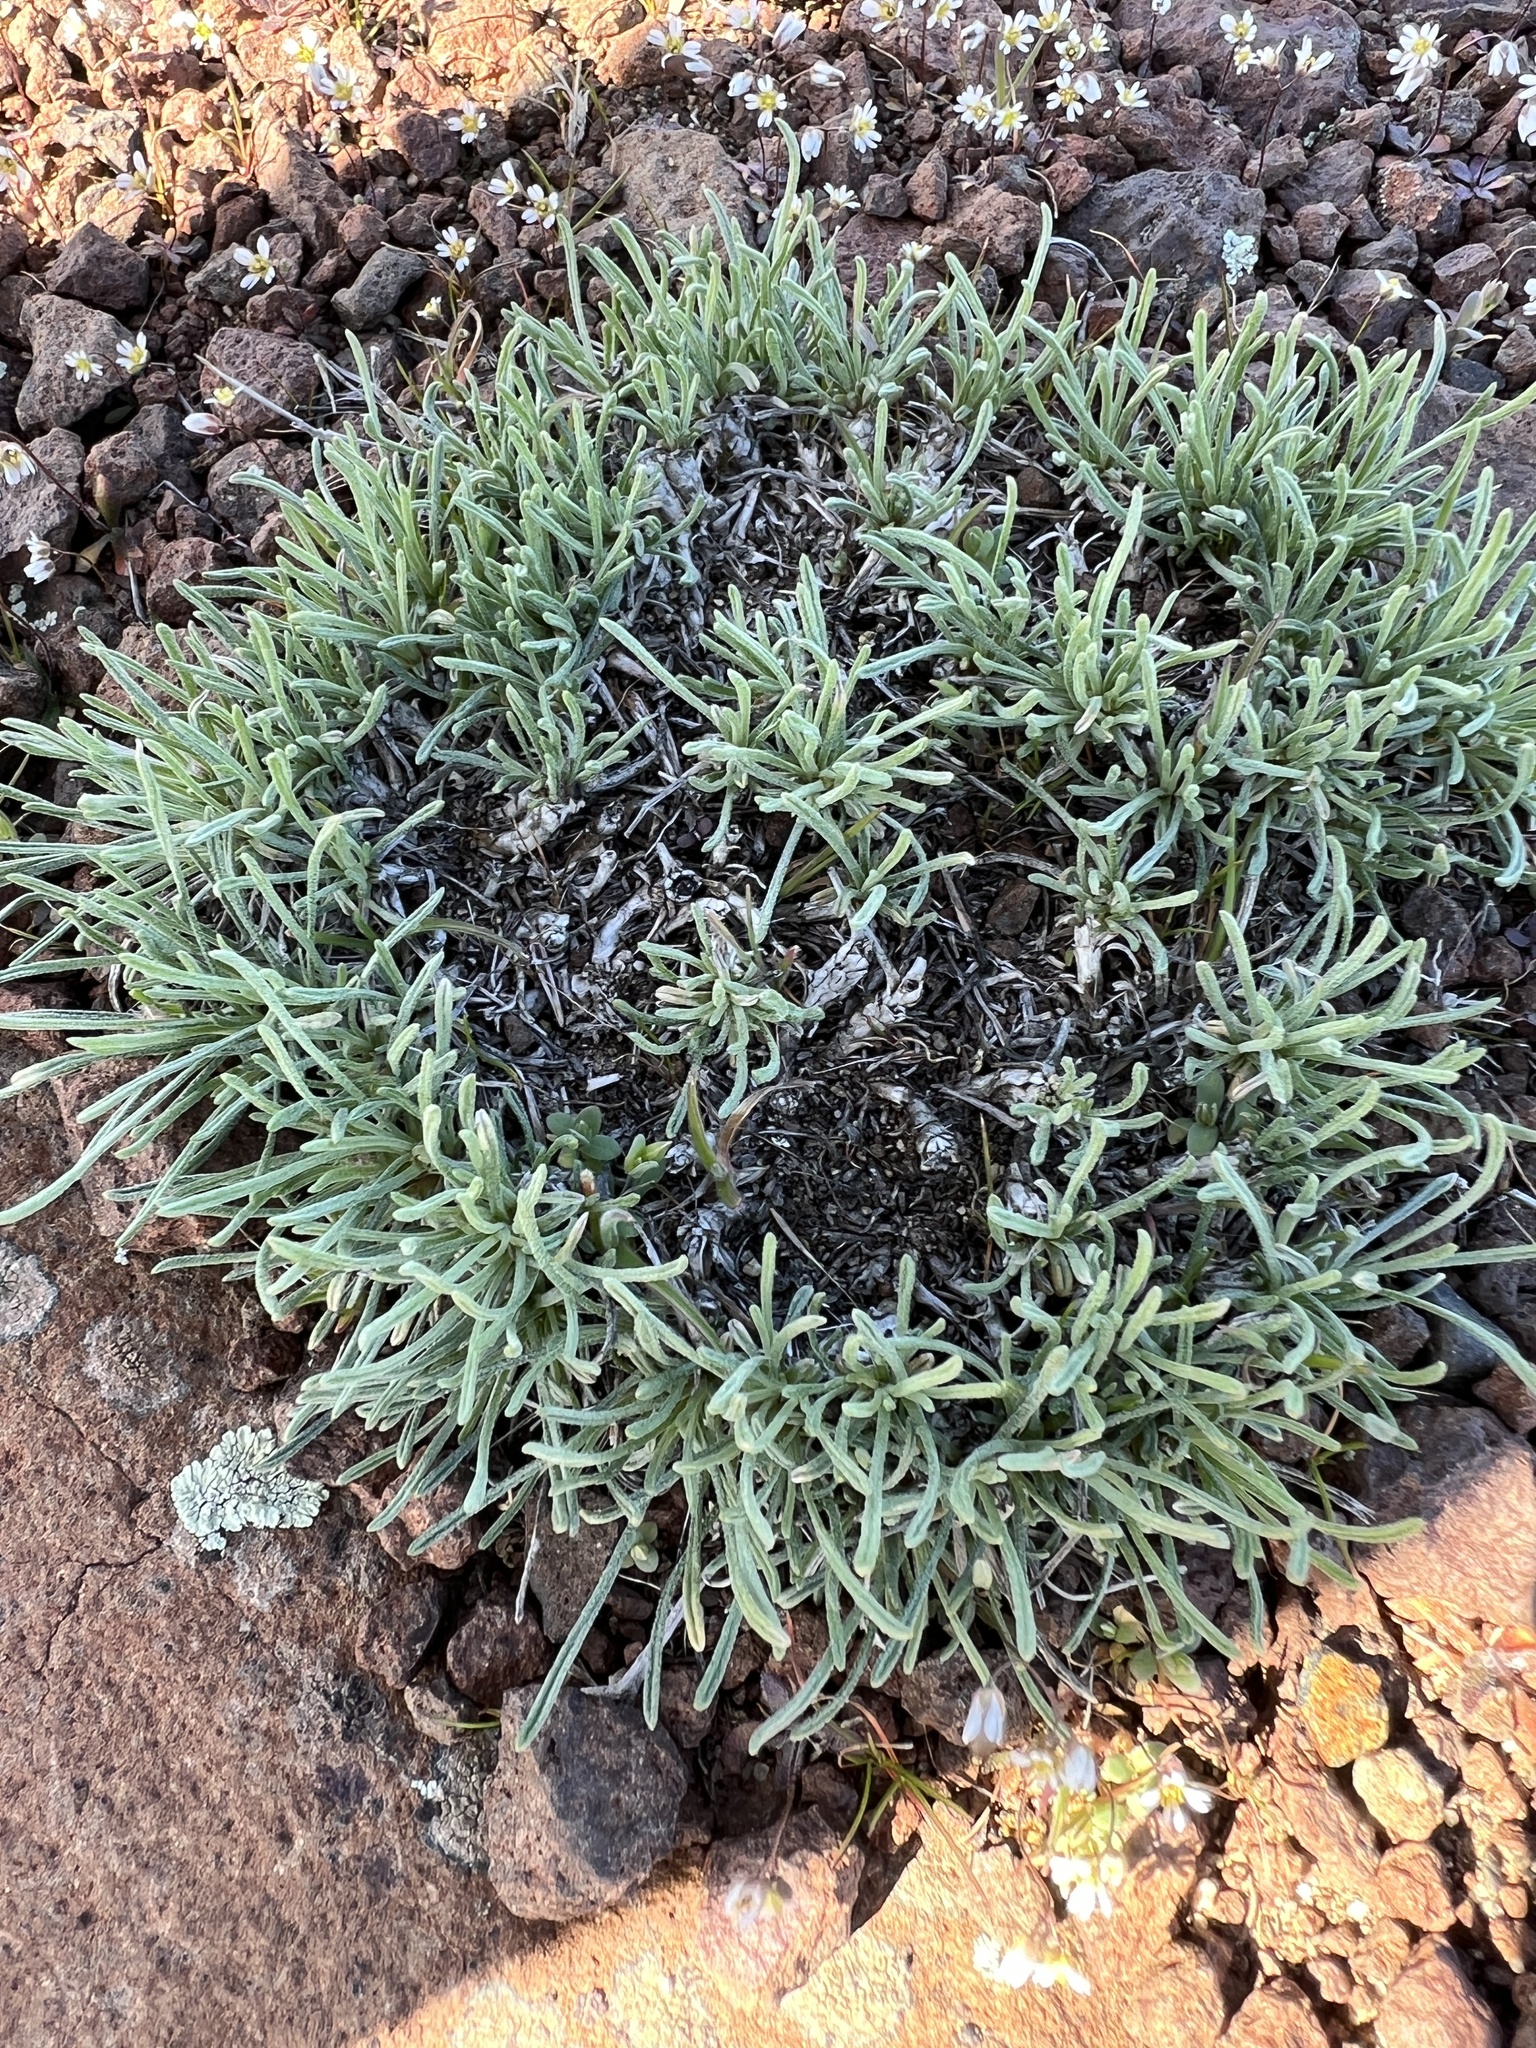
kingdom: Plantae
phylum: Tracheophyta
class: Magnoliopsida
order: Asterales
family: Asteraceae
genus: Erigeron
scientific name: Erigeron linearis
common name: Desert yellow fleabane
